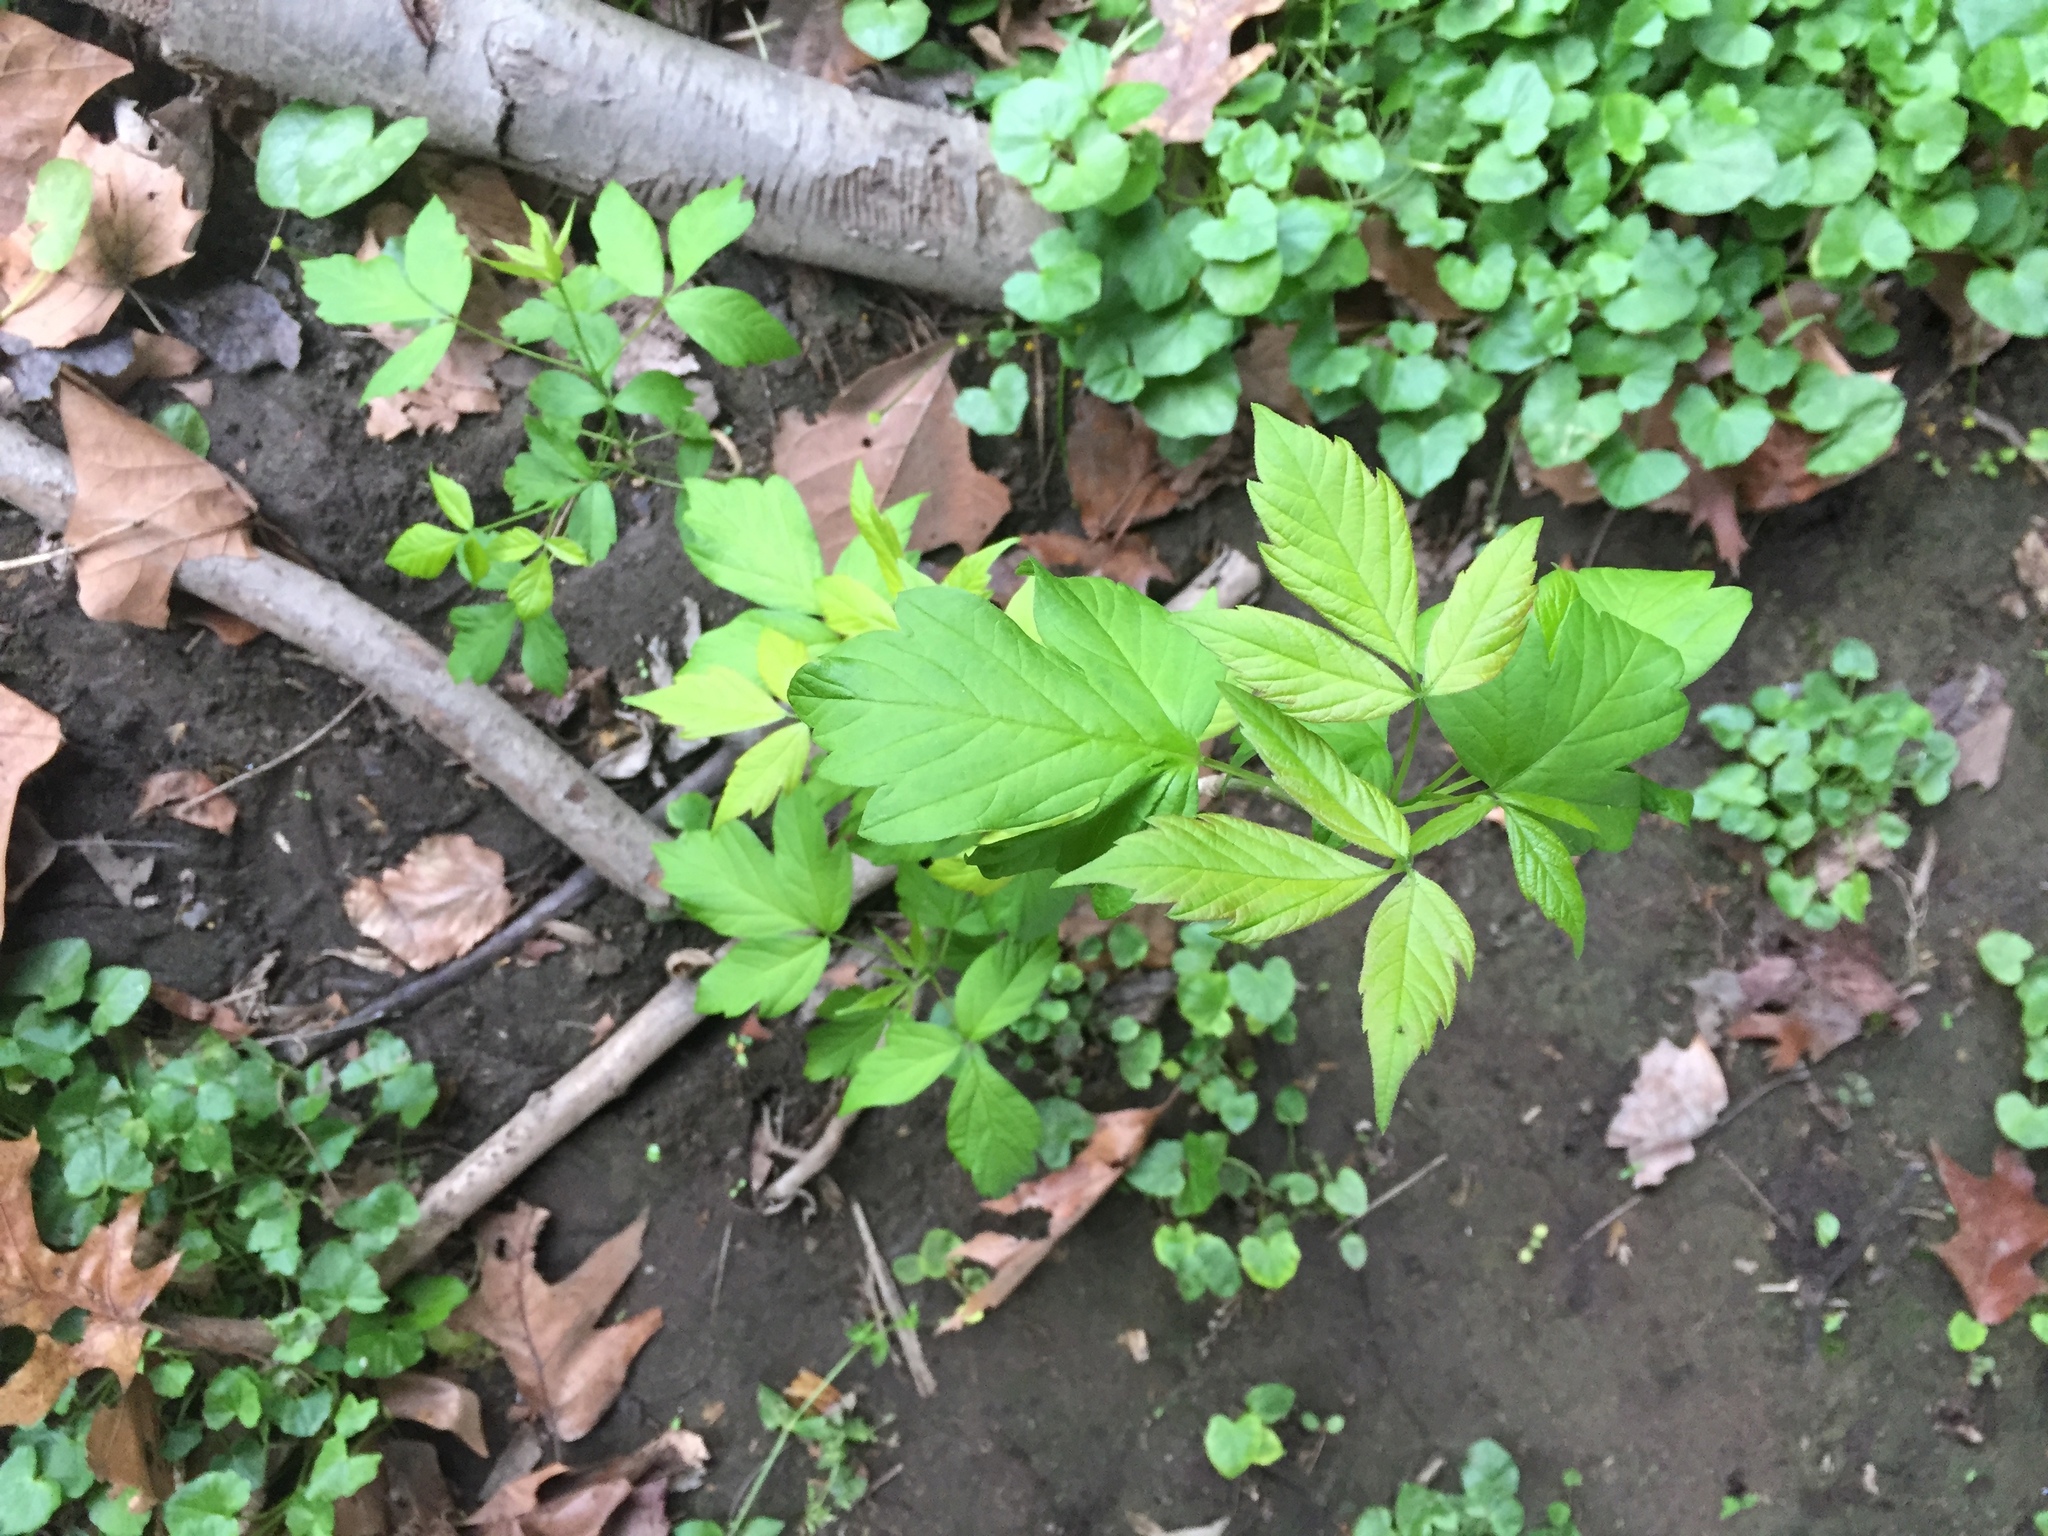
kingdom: Plantae
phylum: Tracheophyta
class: Magnoliopsida
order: Sapindales
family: Sapindaceae
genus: Acer
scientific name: Acer negundo
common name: Ashleaf maple
